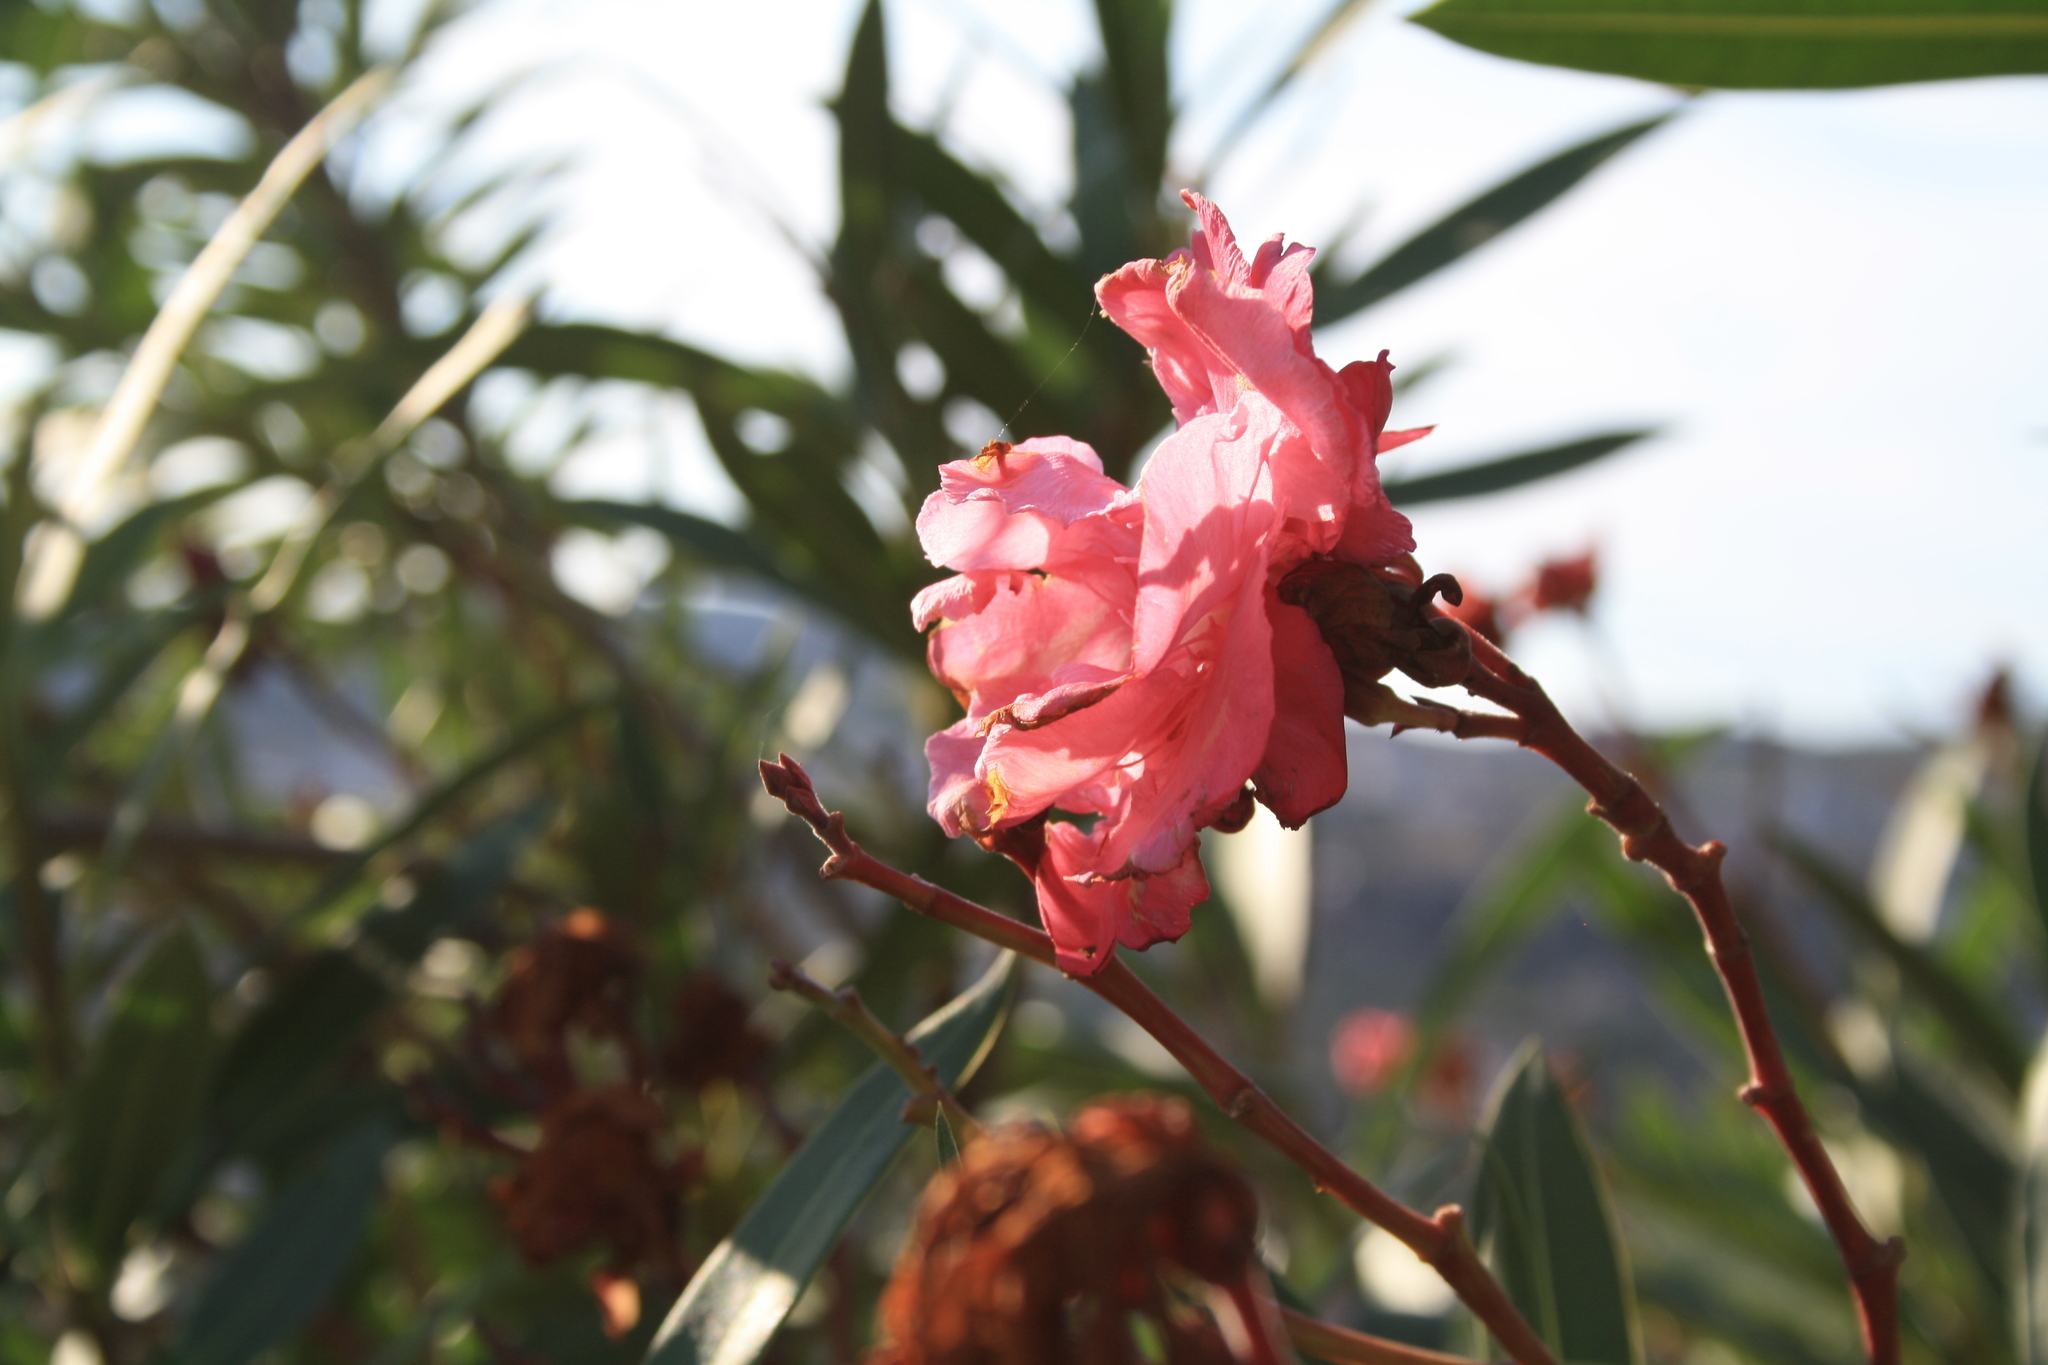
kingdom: Plantae
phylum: Tracheophyta
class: Magnoliopsida
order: Gentianales
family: Apocynaceae
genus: Nerium
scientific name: Nerium oleander
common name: Oleander
